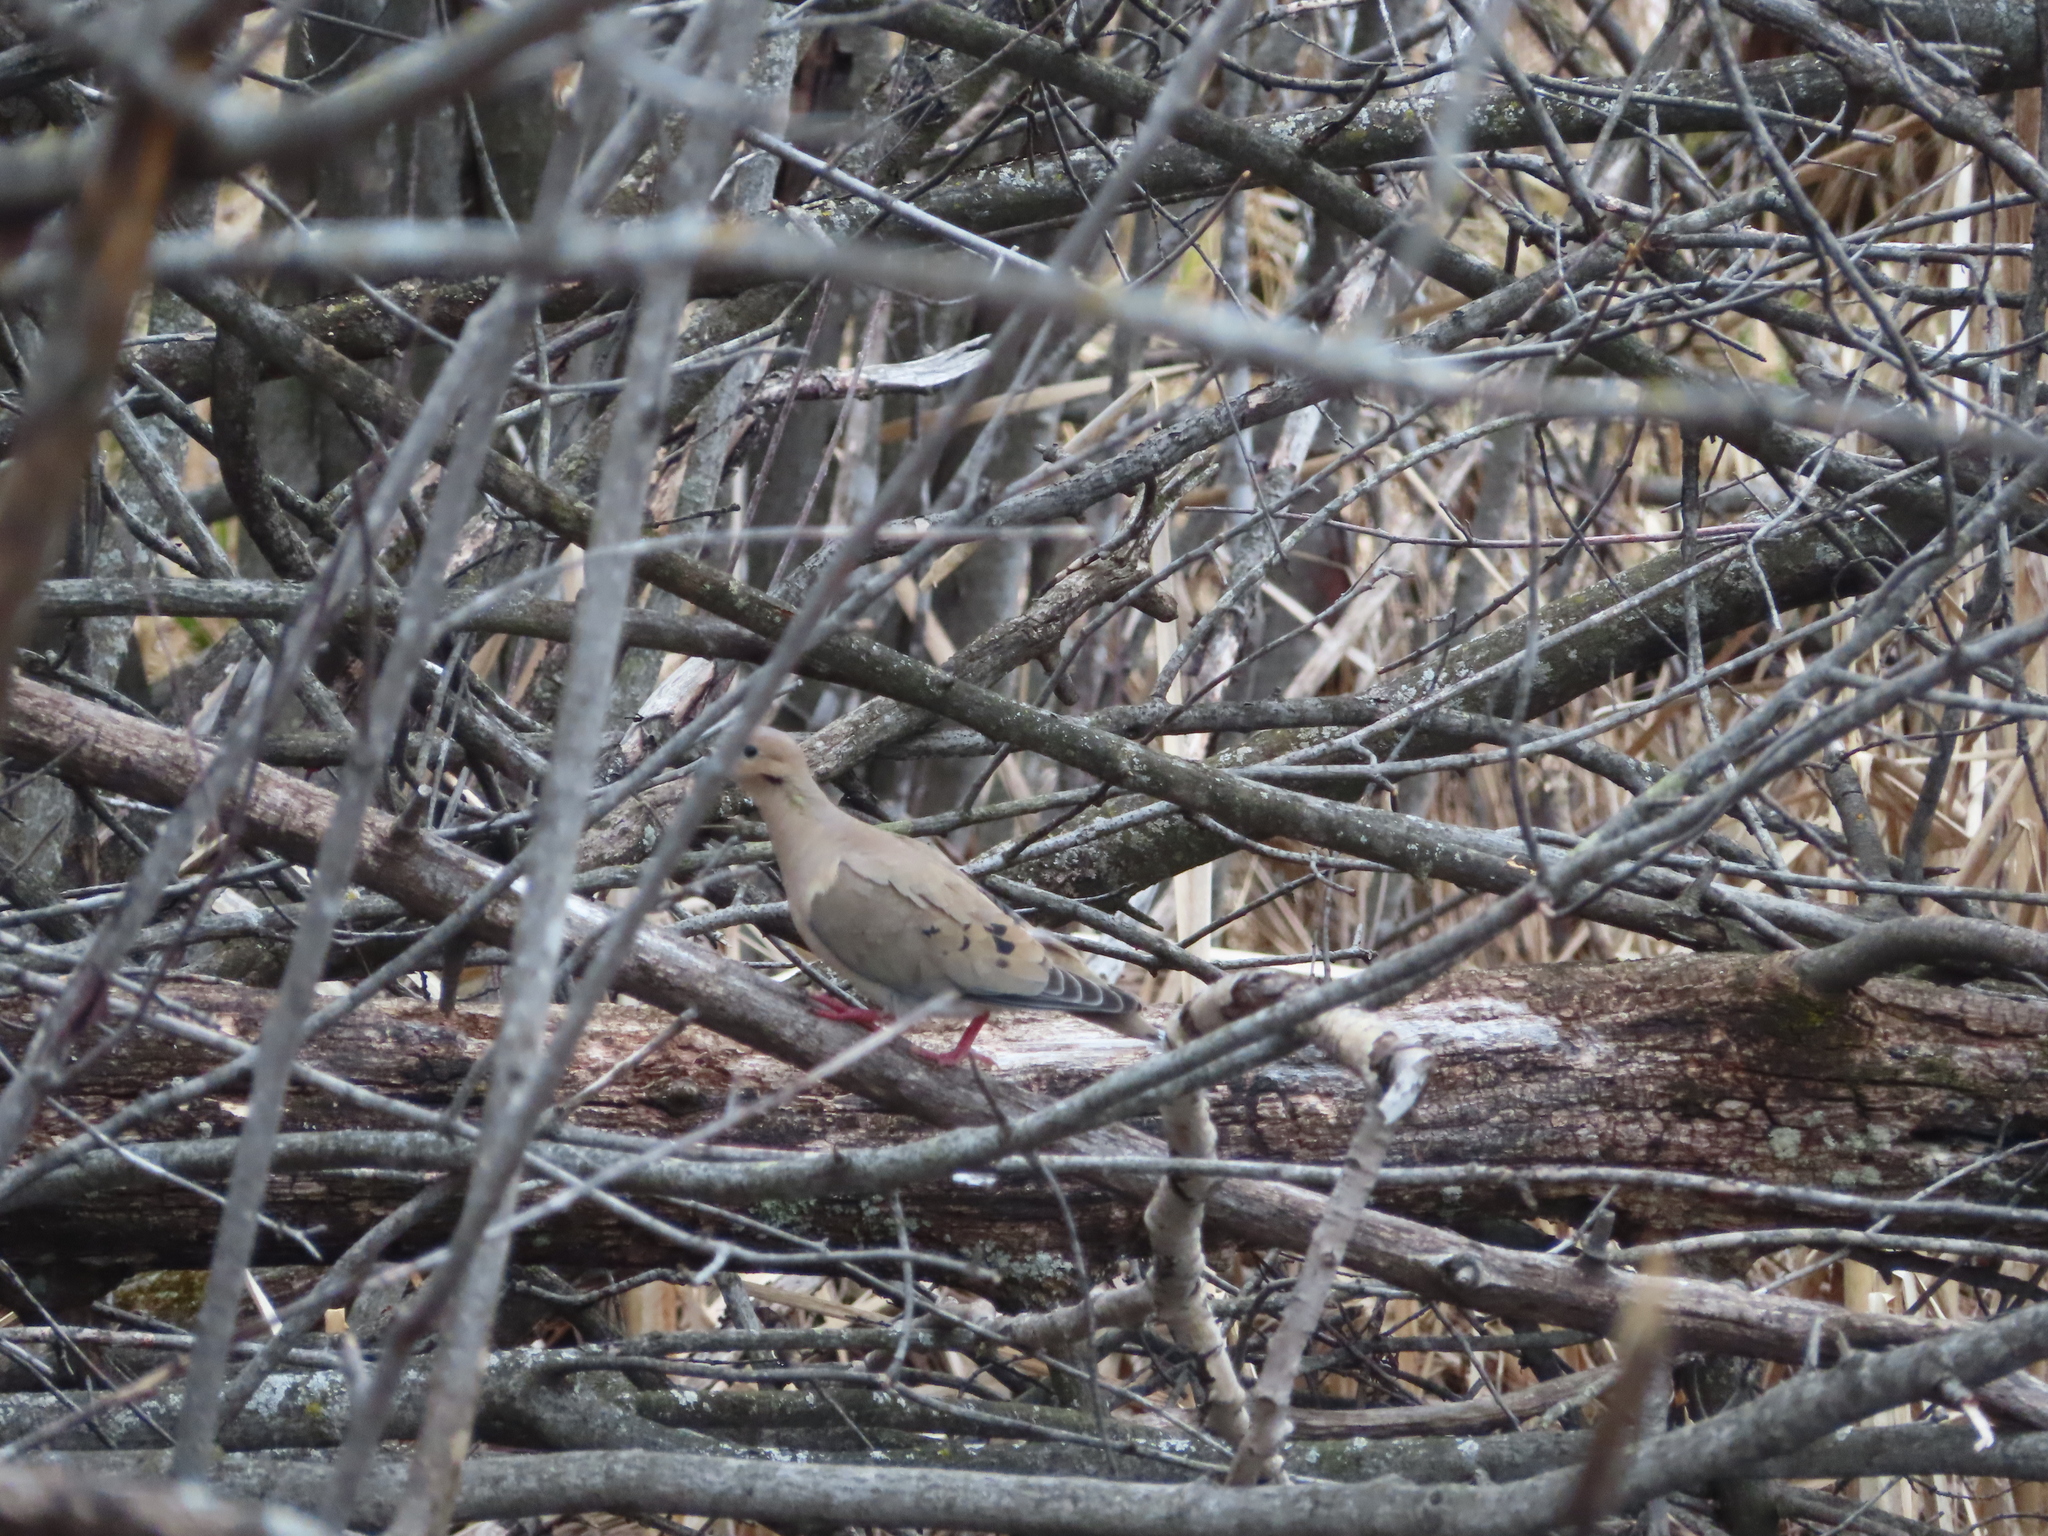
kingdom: Animalia
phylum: Chordata
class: Aves
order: Columbiformes
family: Columbidae
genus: Zenaida
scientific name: Zenaida macroura
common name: Mourning dove
